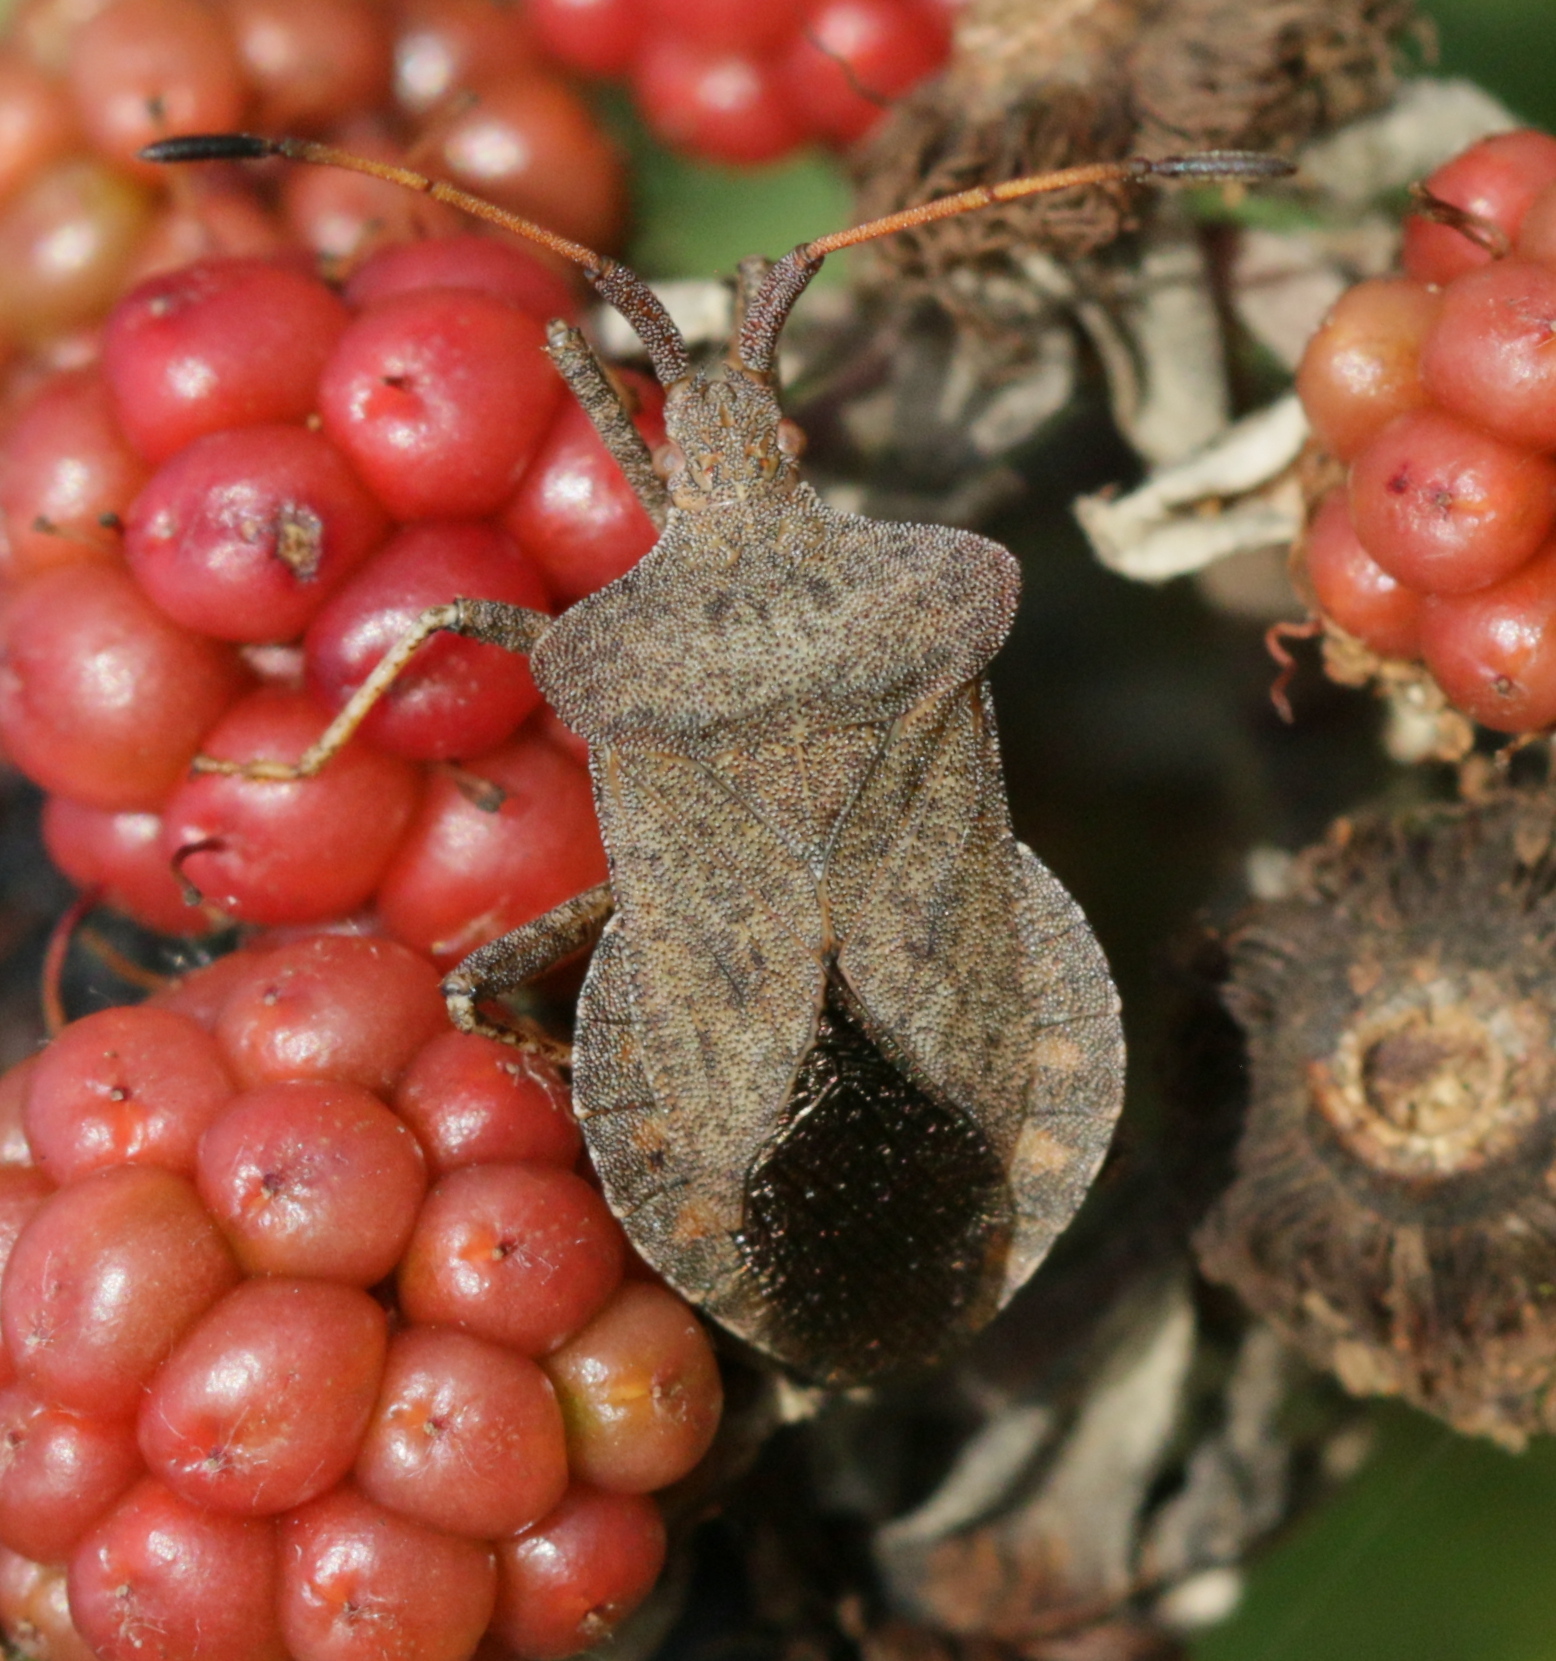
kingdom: Animalia
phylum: Arthropoda
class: Insecta
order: Hemiptera
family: Coreidae
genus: Coreus
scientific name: Coreus marginatus
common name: Dock bug
